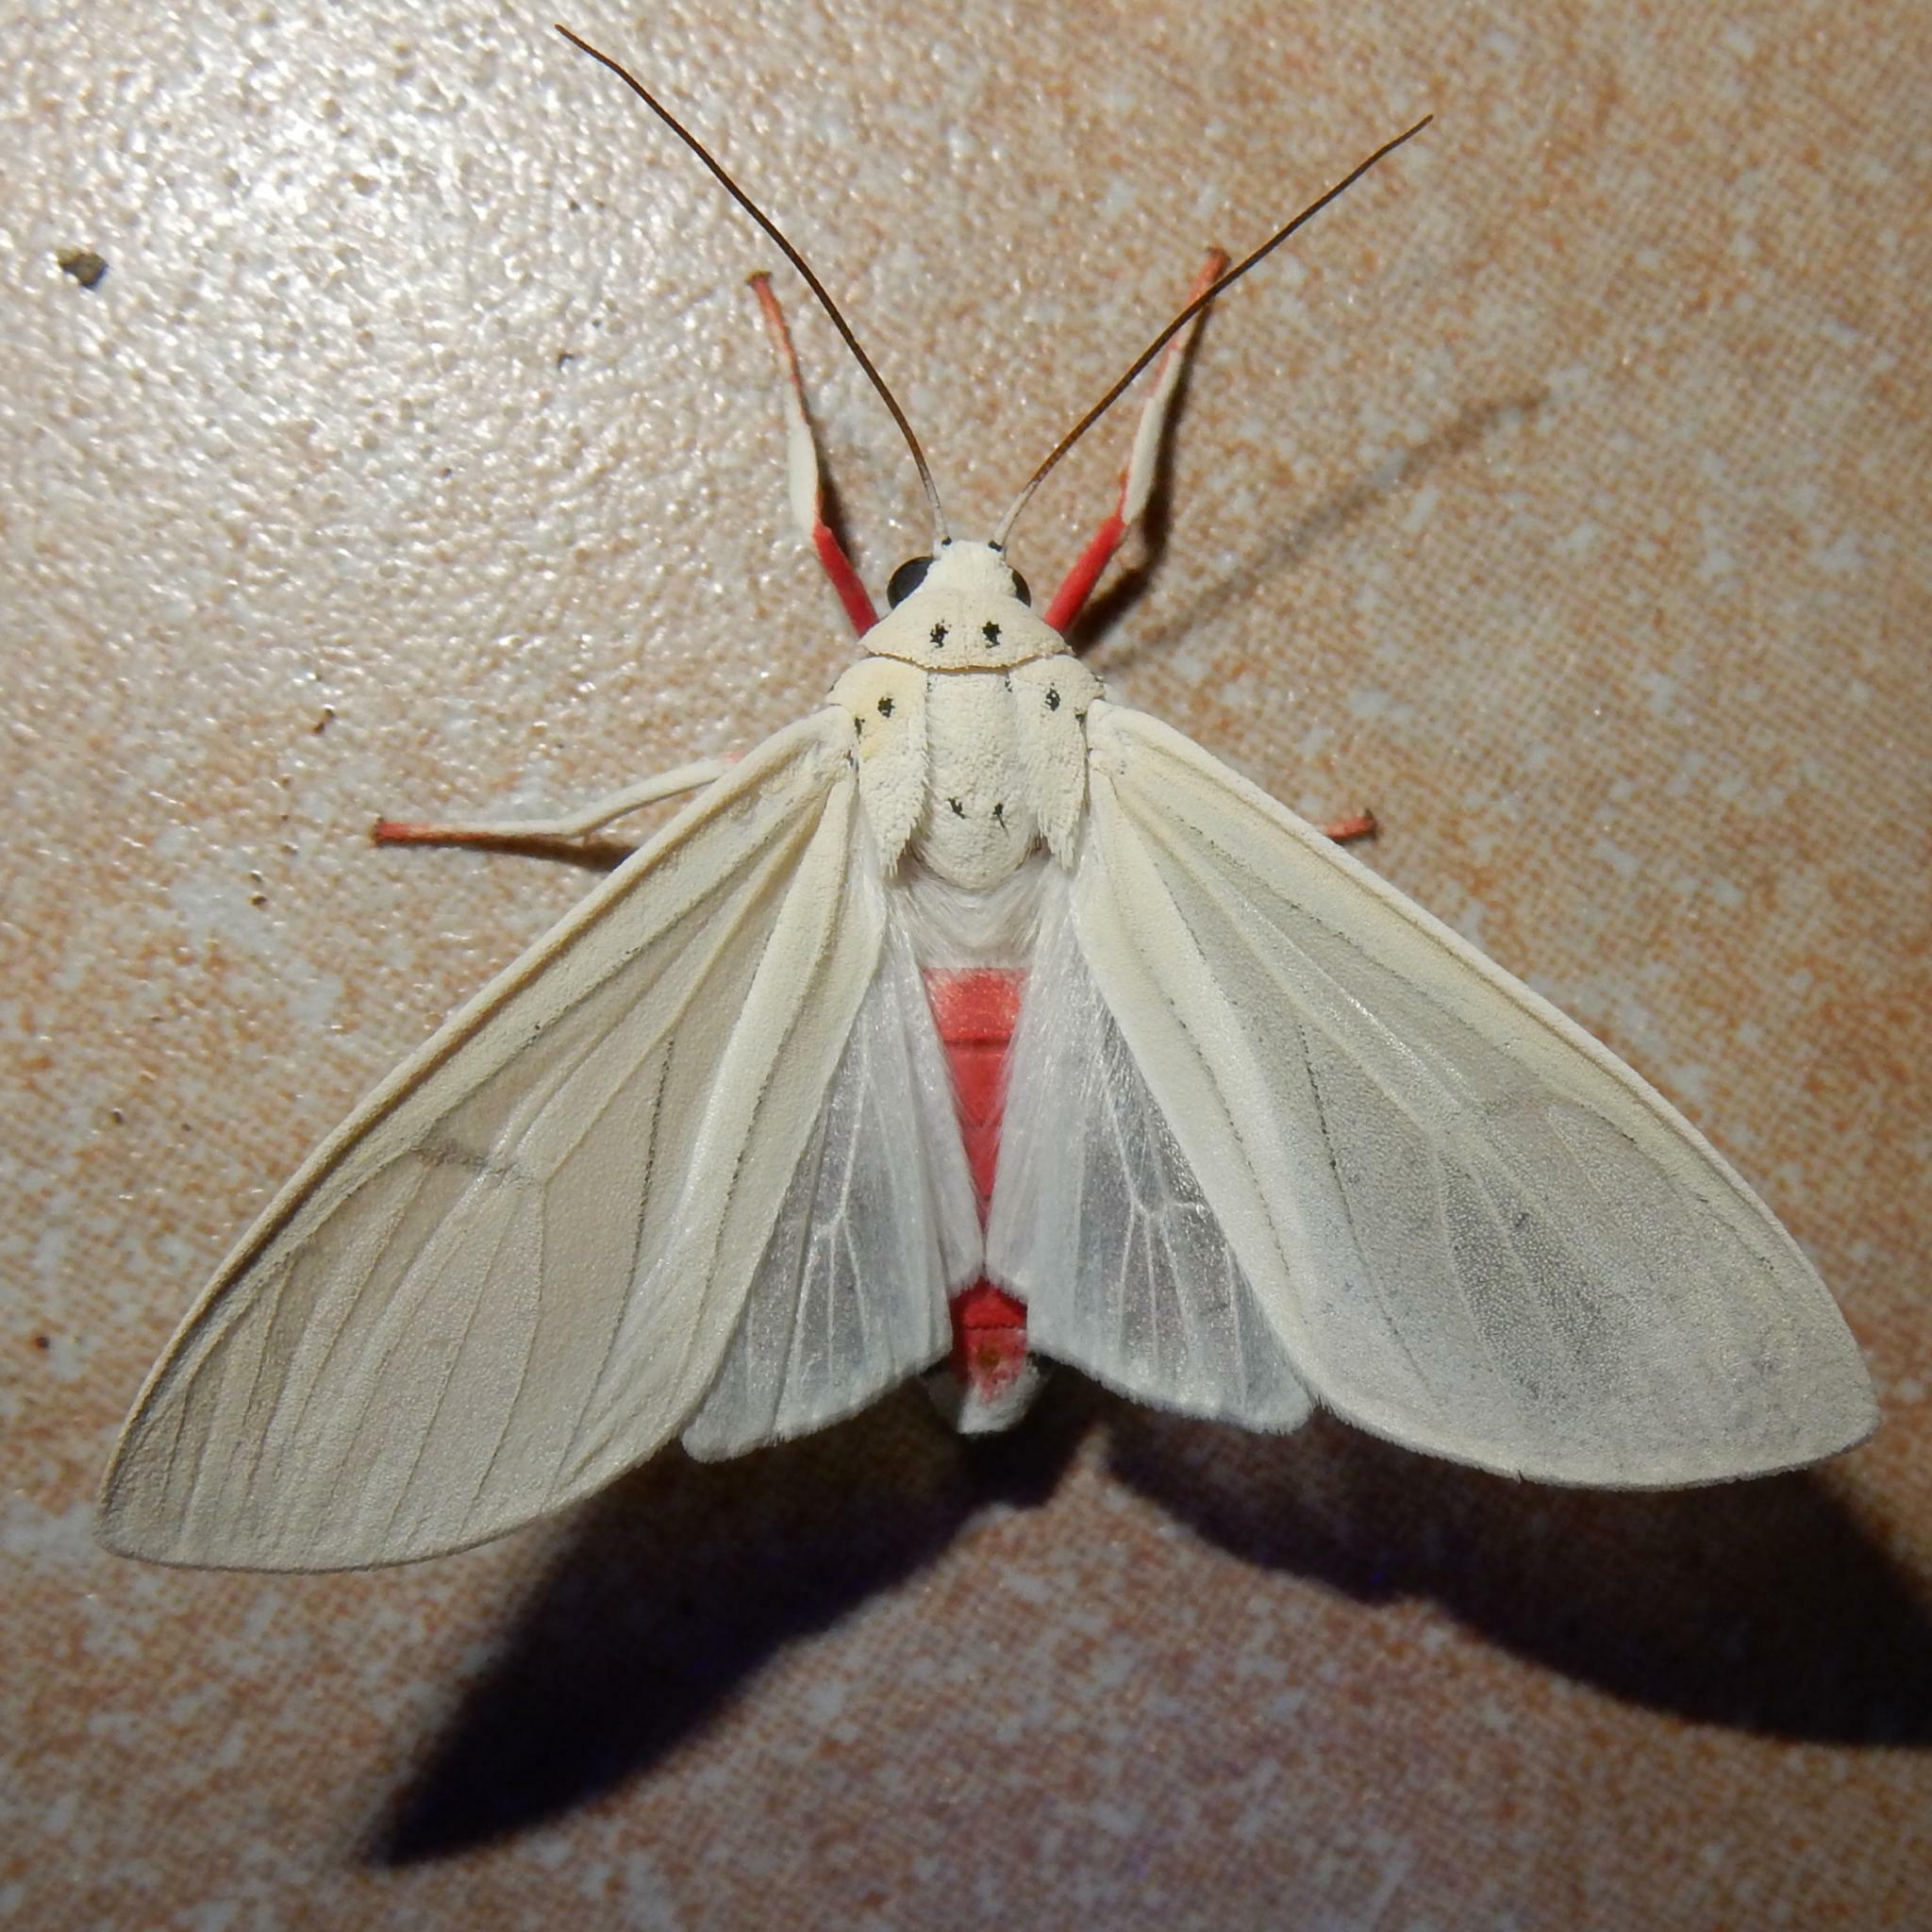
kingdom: Animalia
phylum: Arthropoda
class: Insecta
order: Lepidoptera
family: Erebidae
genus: Amerila
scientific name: Amerila lupia
